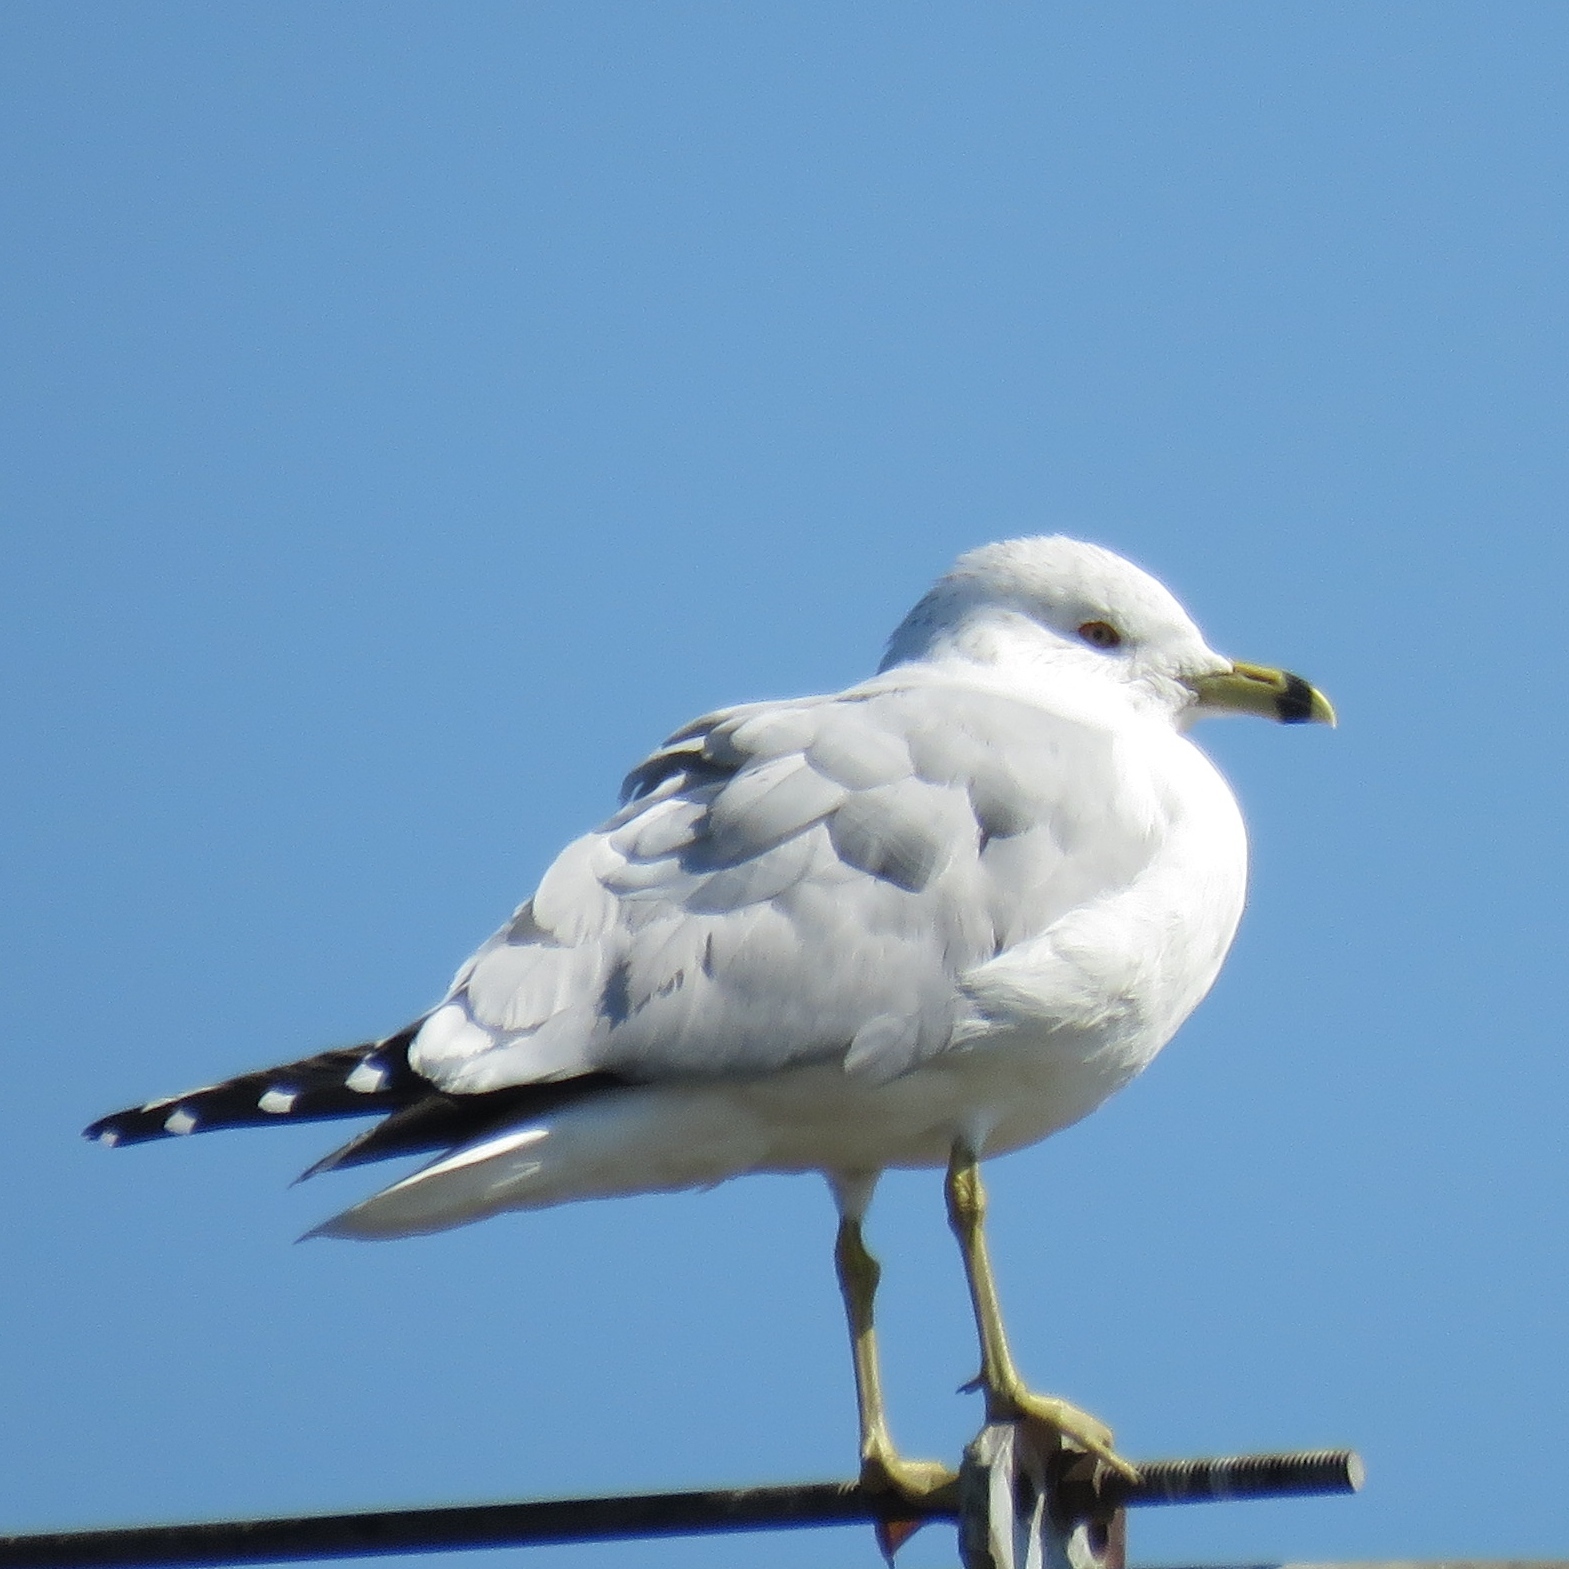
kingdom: Animalia
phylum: Chordata
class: Aves
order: Charadriiformes
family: Laridae
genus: Larus
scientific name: Larus delawarensis
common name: Ring-billed gull
